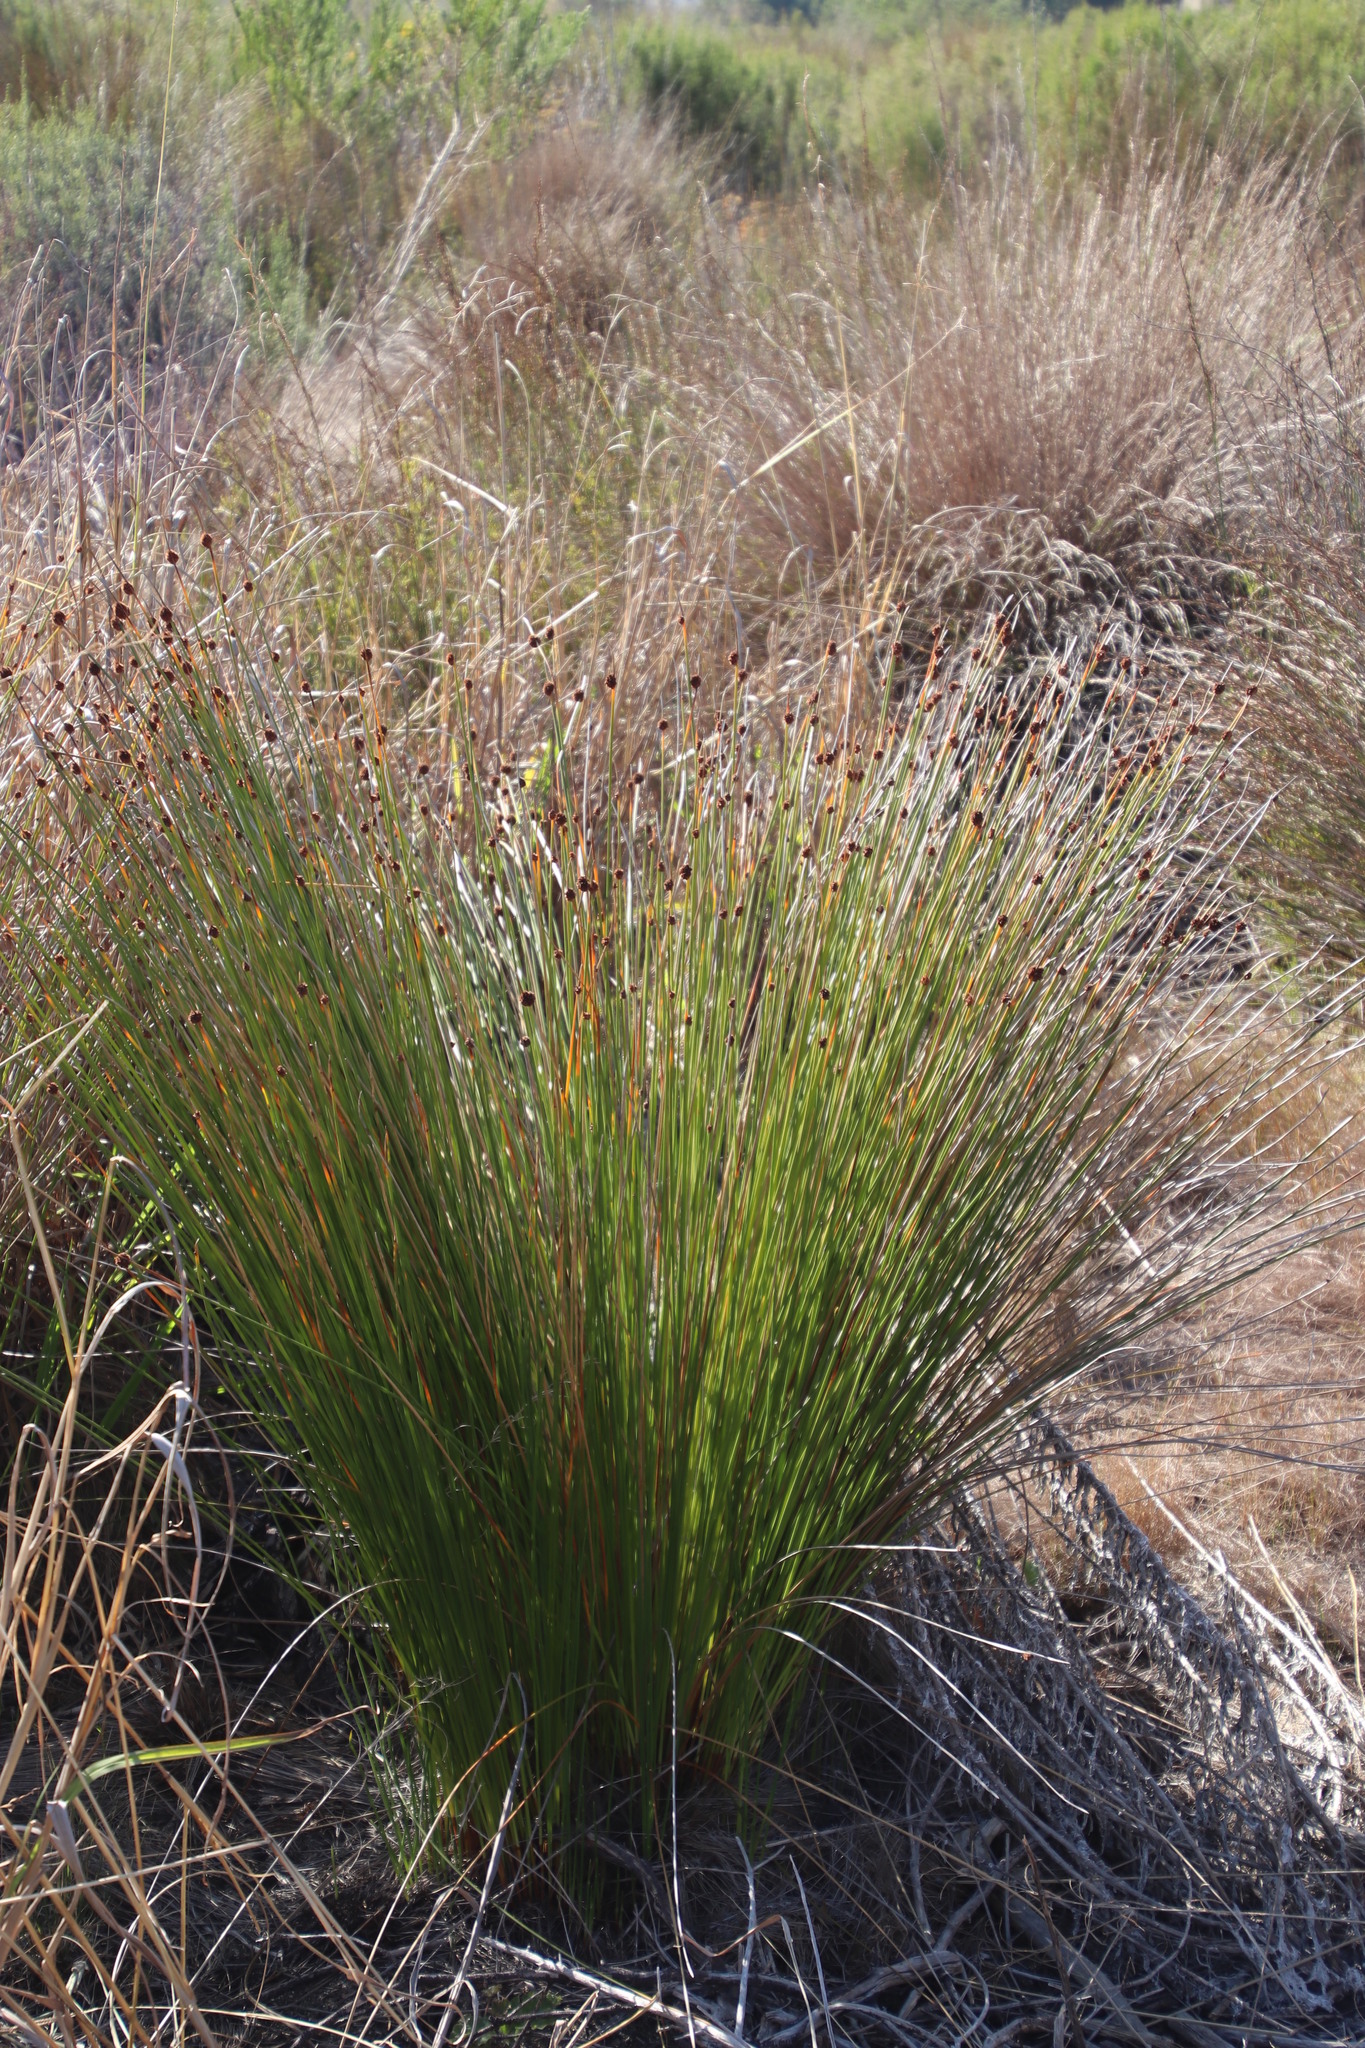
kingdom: Plantae
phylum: Tracheophyta
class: Liliopsida
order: Poales
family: Cyperaceae
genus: Ficinia
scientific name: Ficinia nodosa
